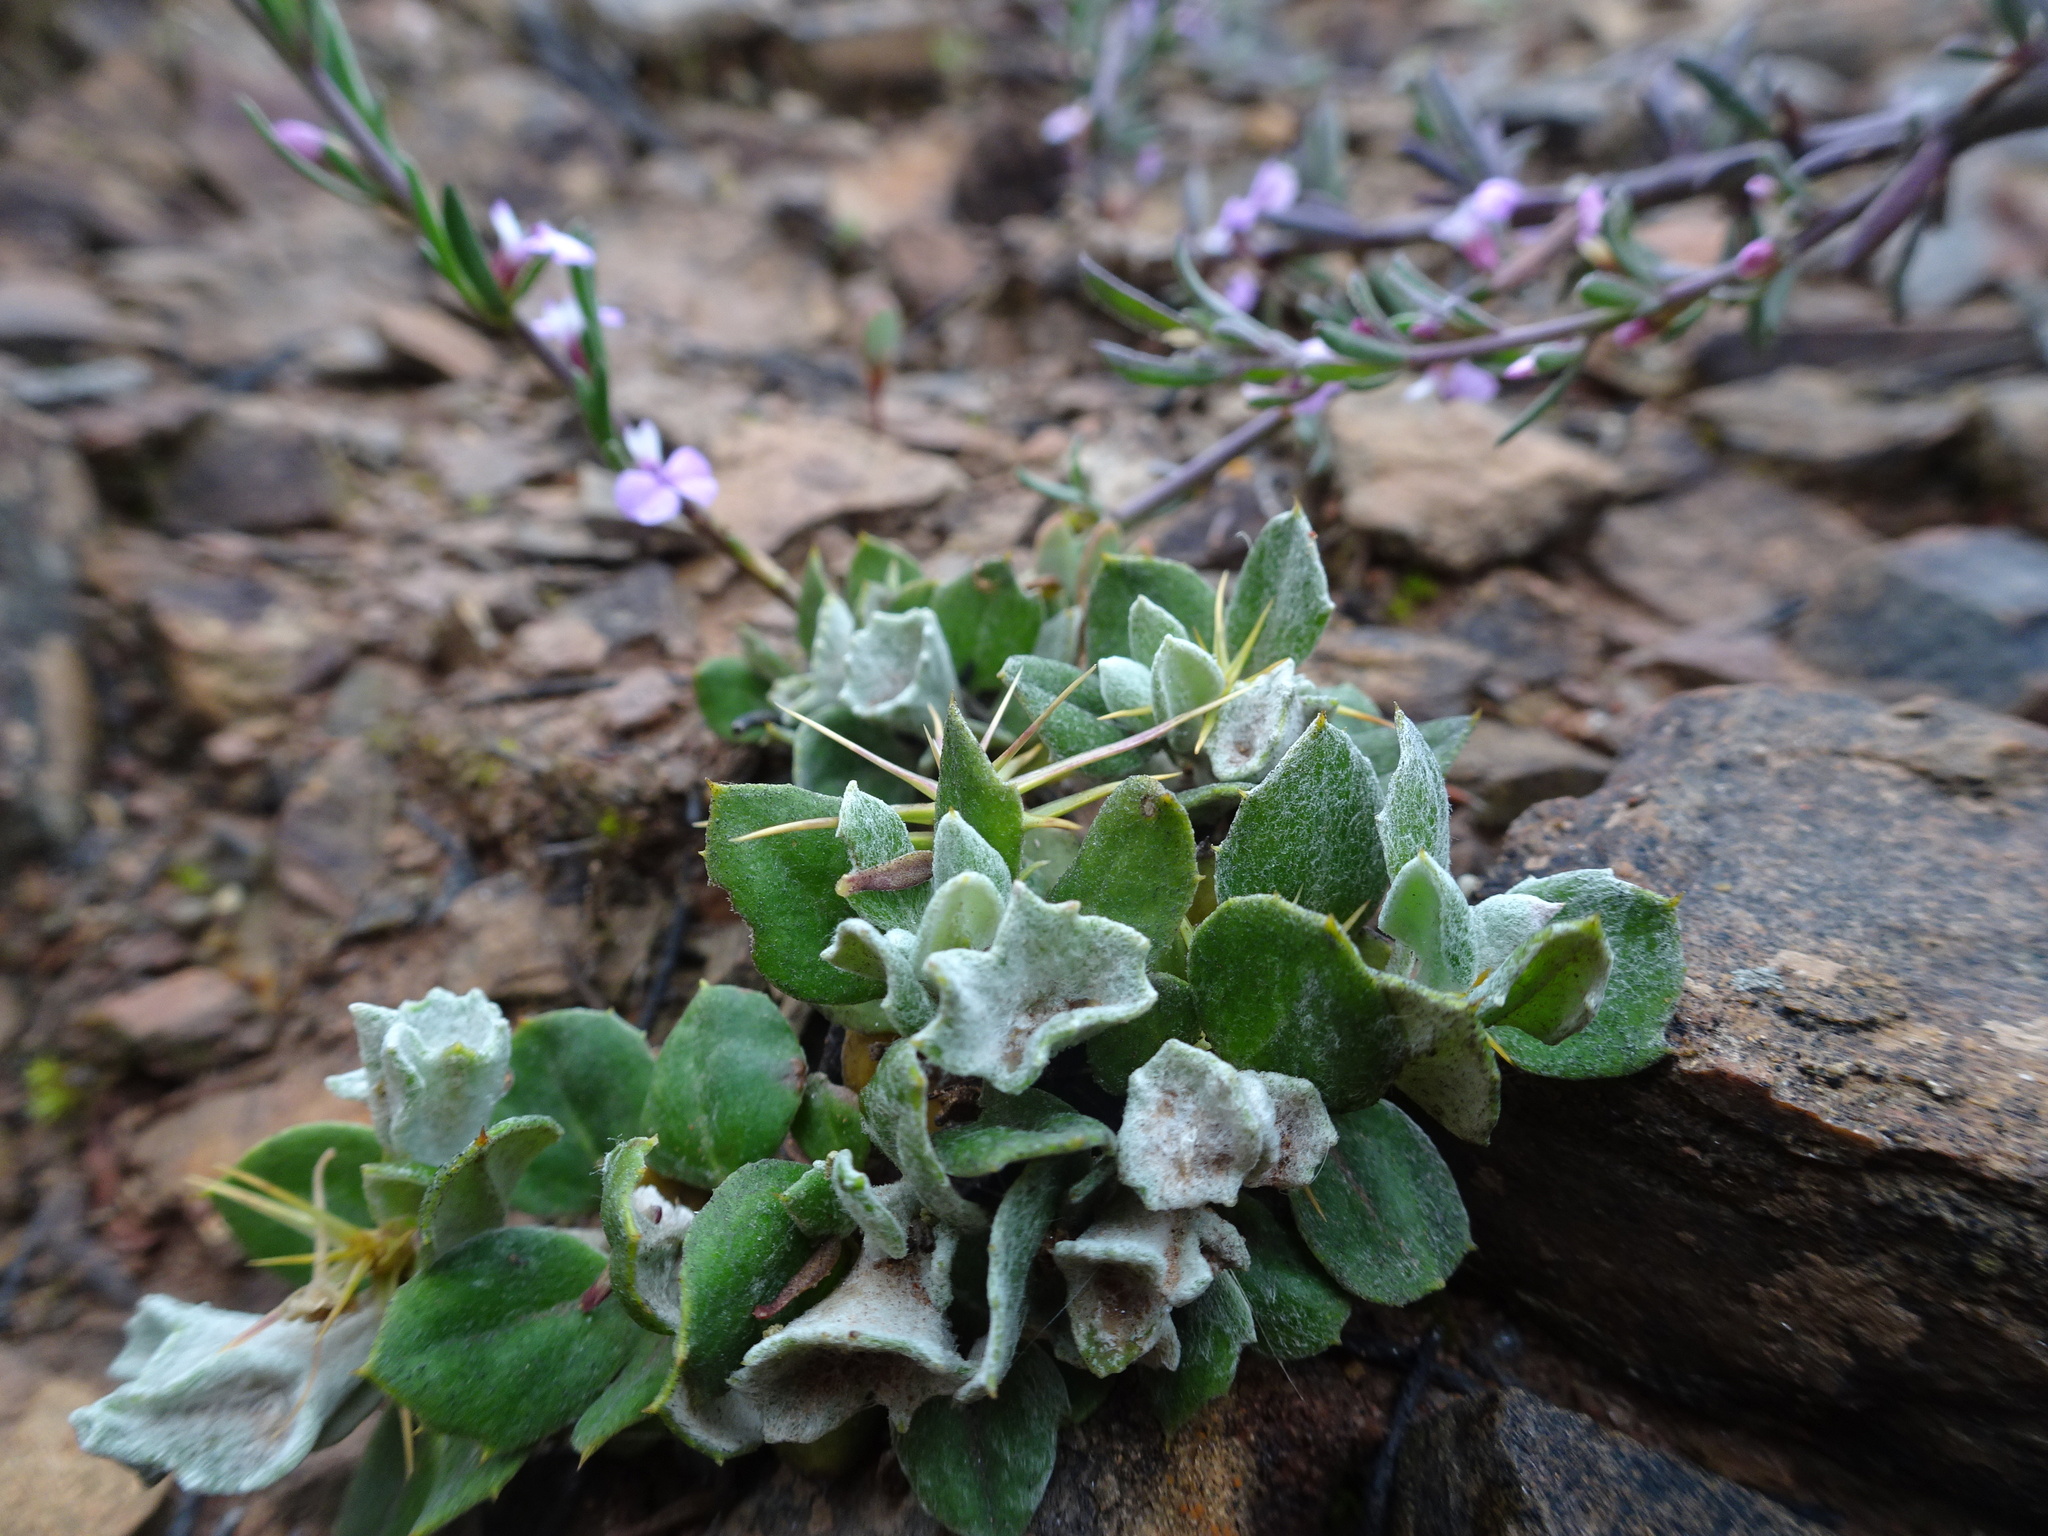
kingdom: Plantae
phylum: Tracheophyta
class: Magnoliopsida
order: Asterales
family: Asteraceae
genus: Macledium
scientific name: Macledium spinosum
